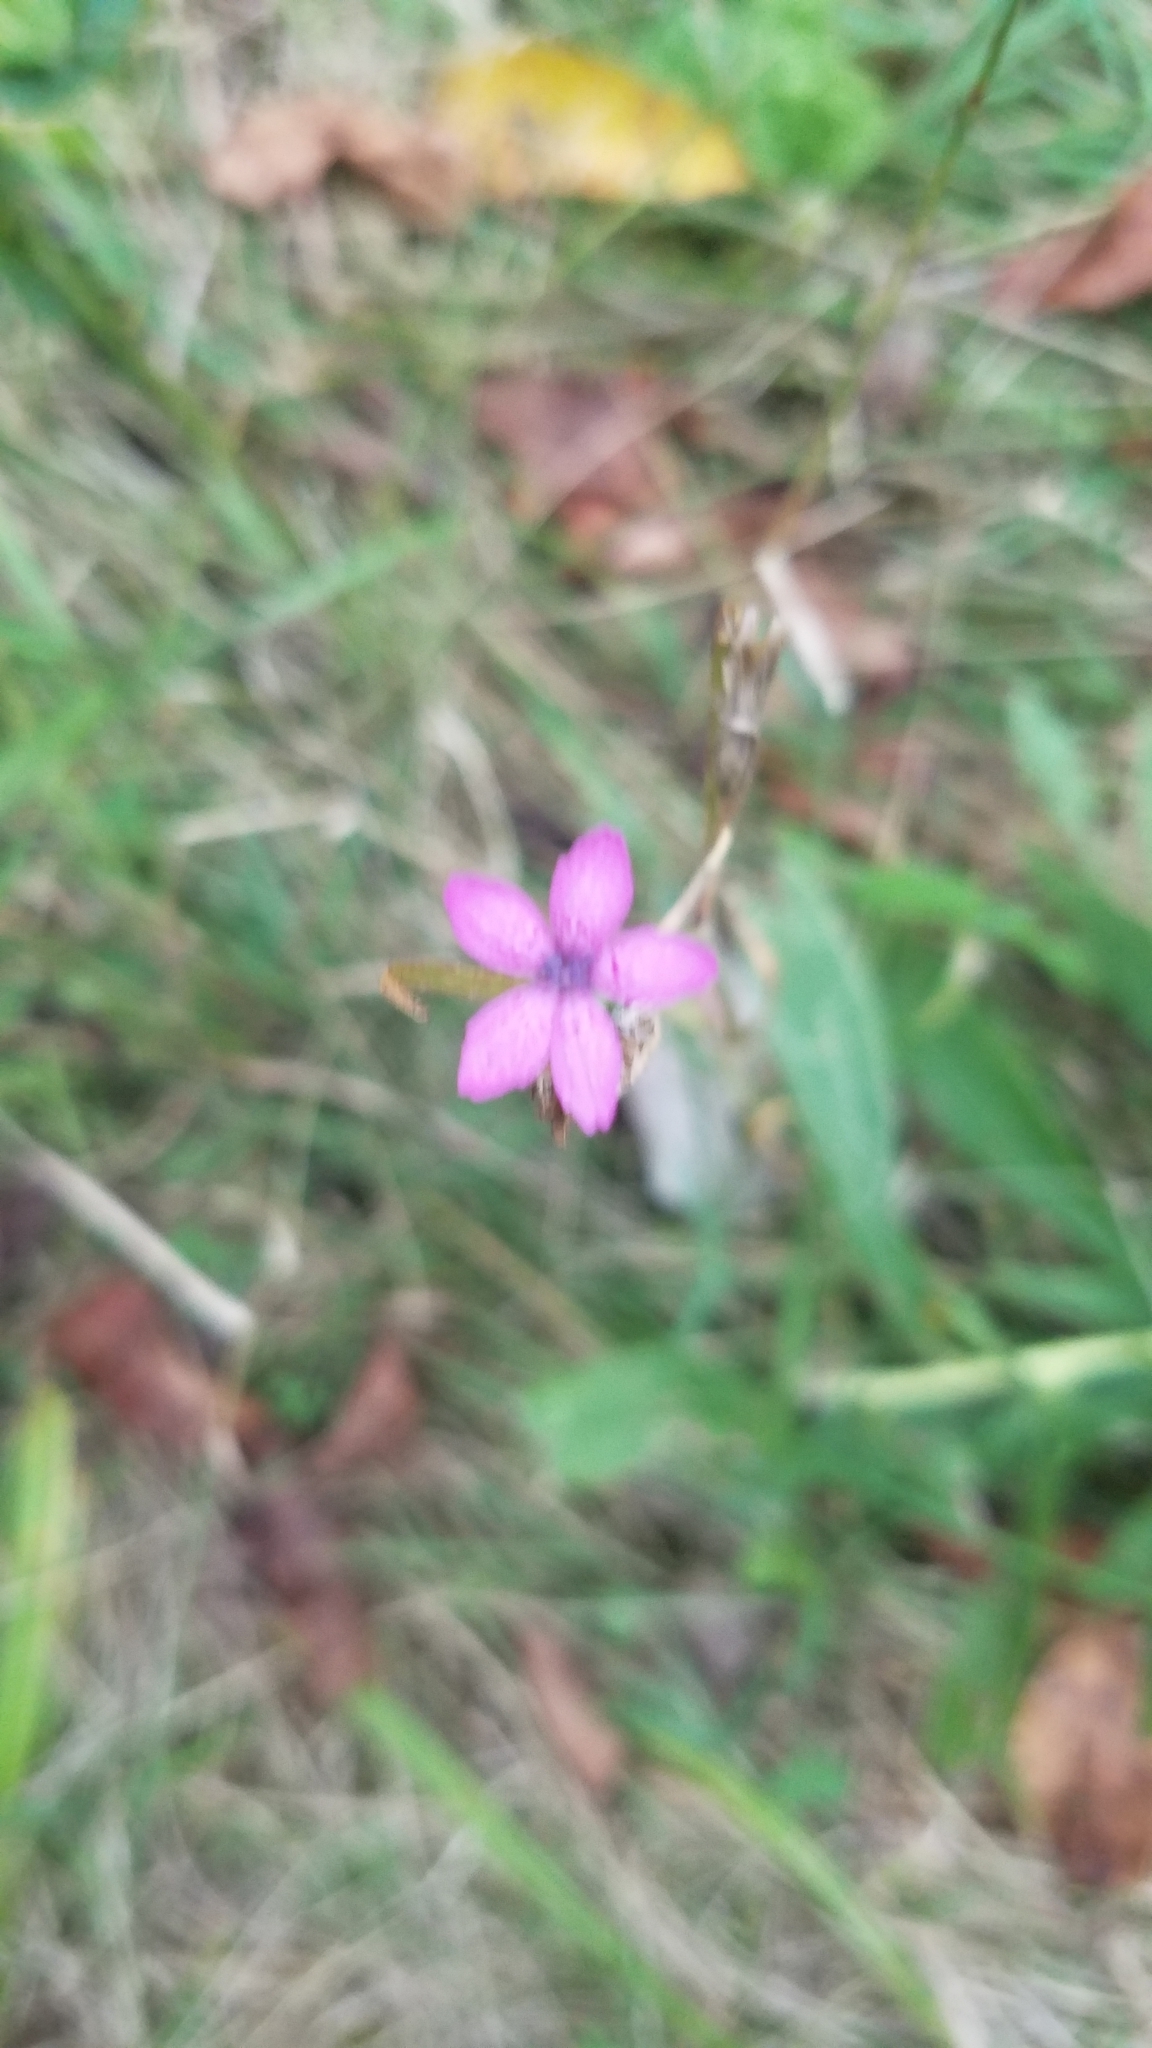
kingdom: Plantae
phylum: Tracheophyta
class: Magnoliopsida
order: Caryophyllales
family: Caryophyllaceae
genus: Dianthus
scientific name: Dianthus armeria
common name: Deptford pink
